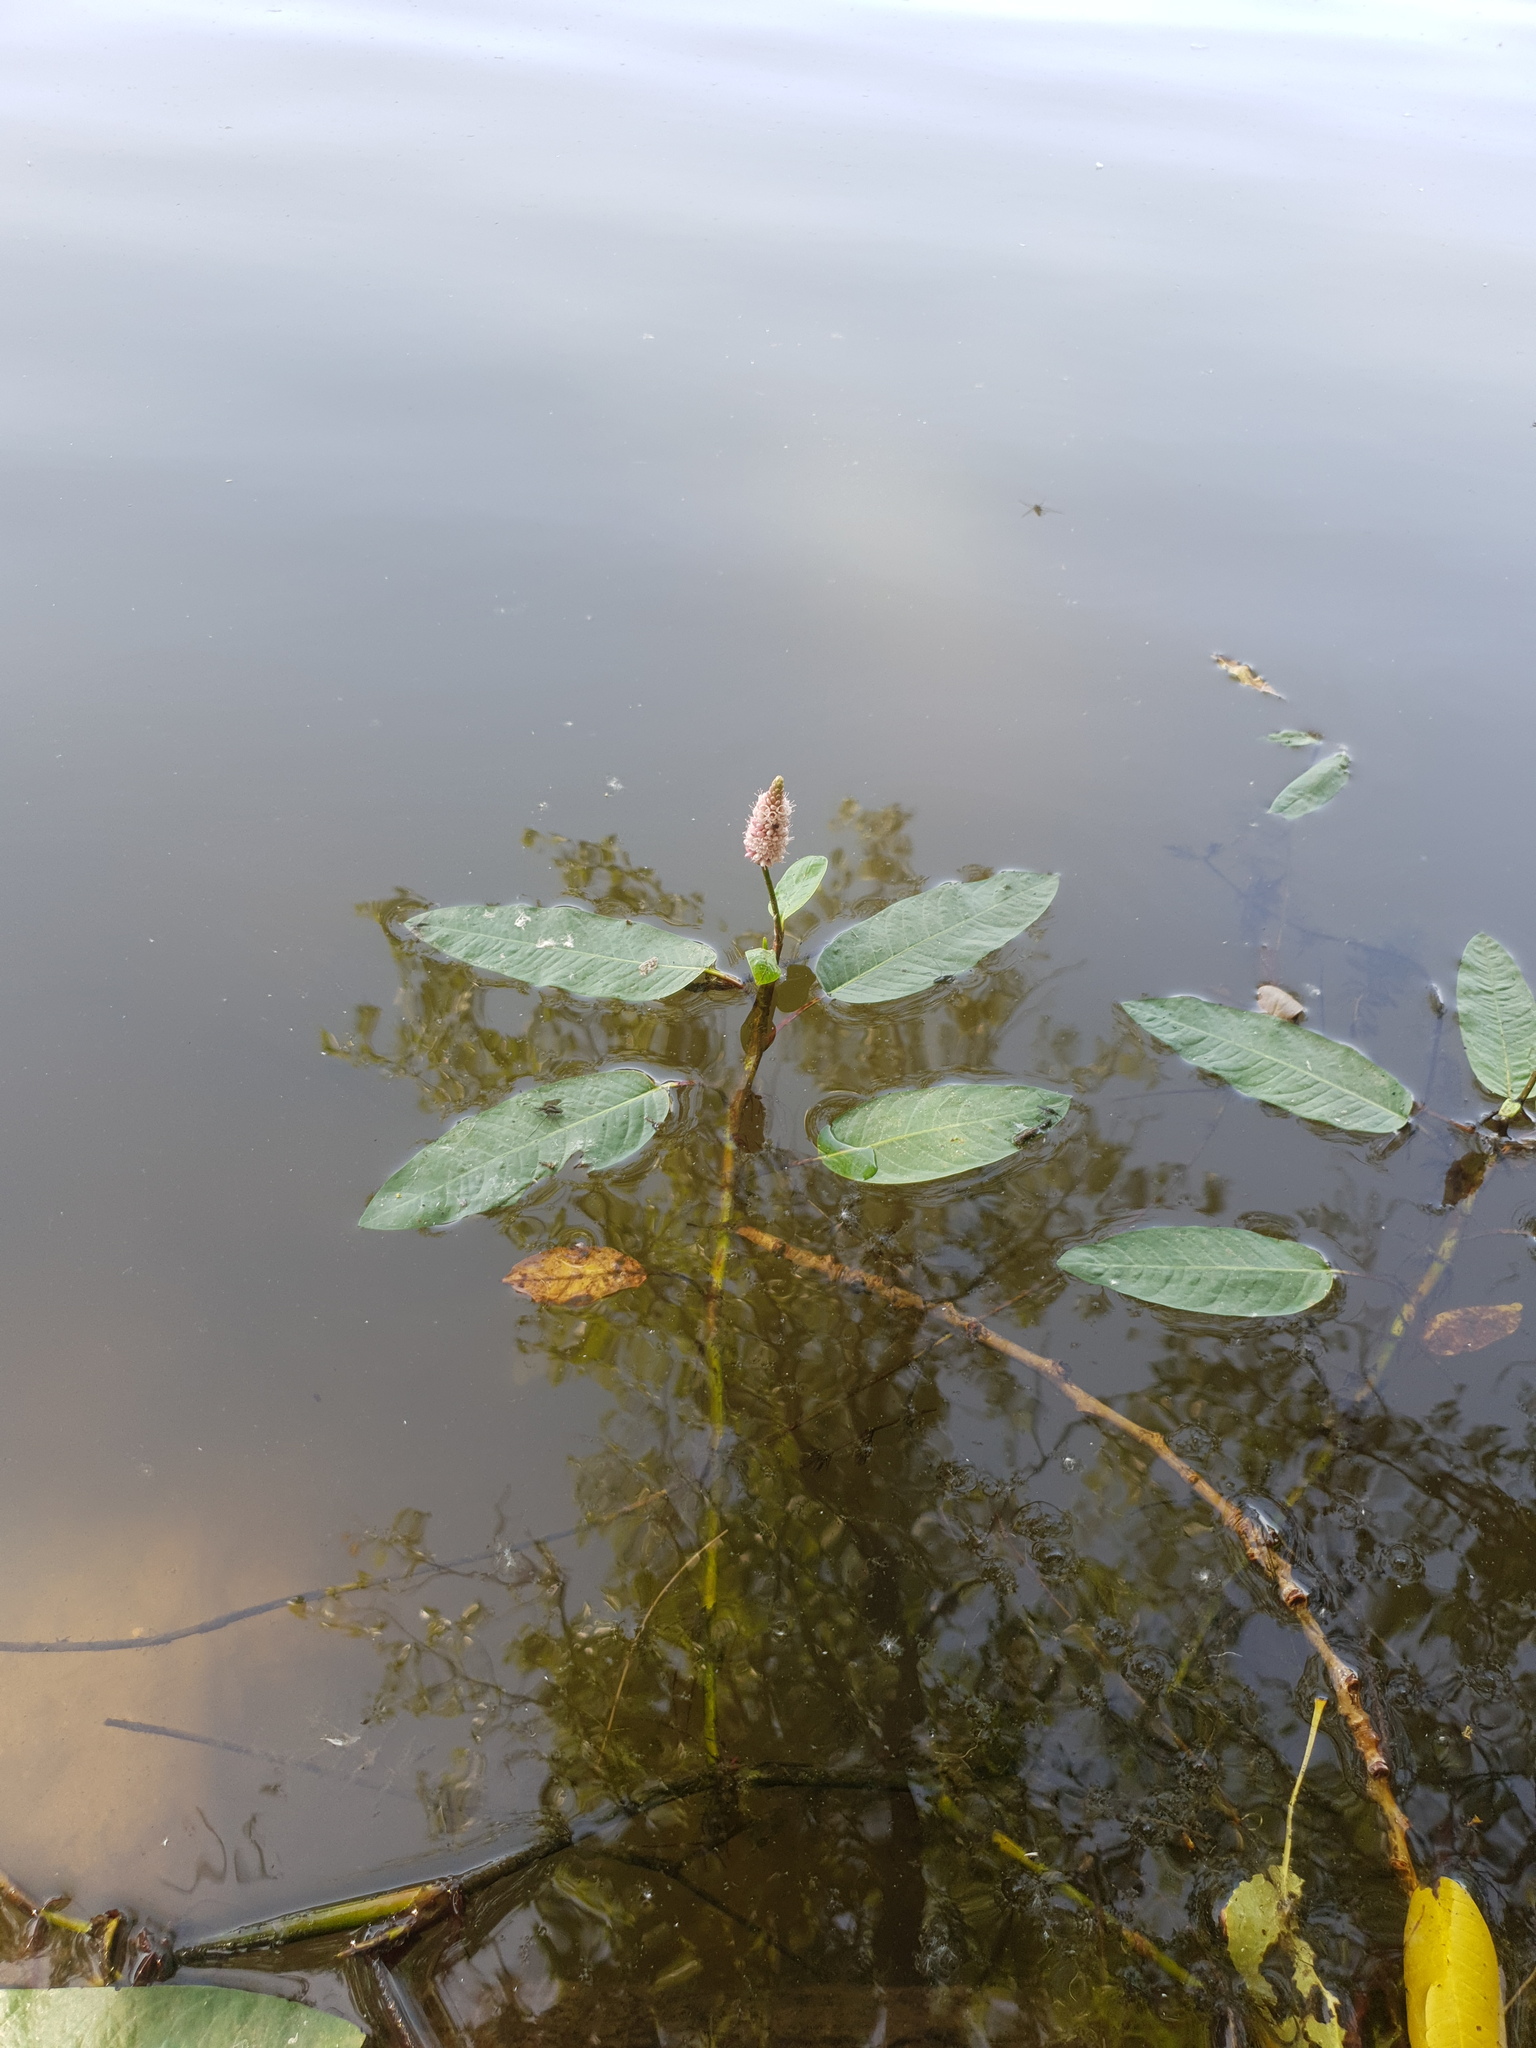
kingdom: Plantae
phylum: Tracheophyta
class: Magnoliopsida
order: Caryophyllales
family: Polygonaceae
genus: Persicaria
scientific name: Persicaria amphibia
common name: Amphibious bistort
